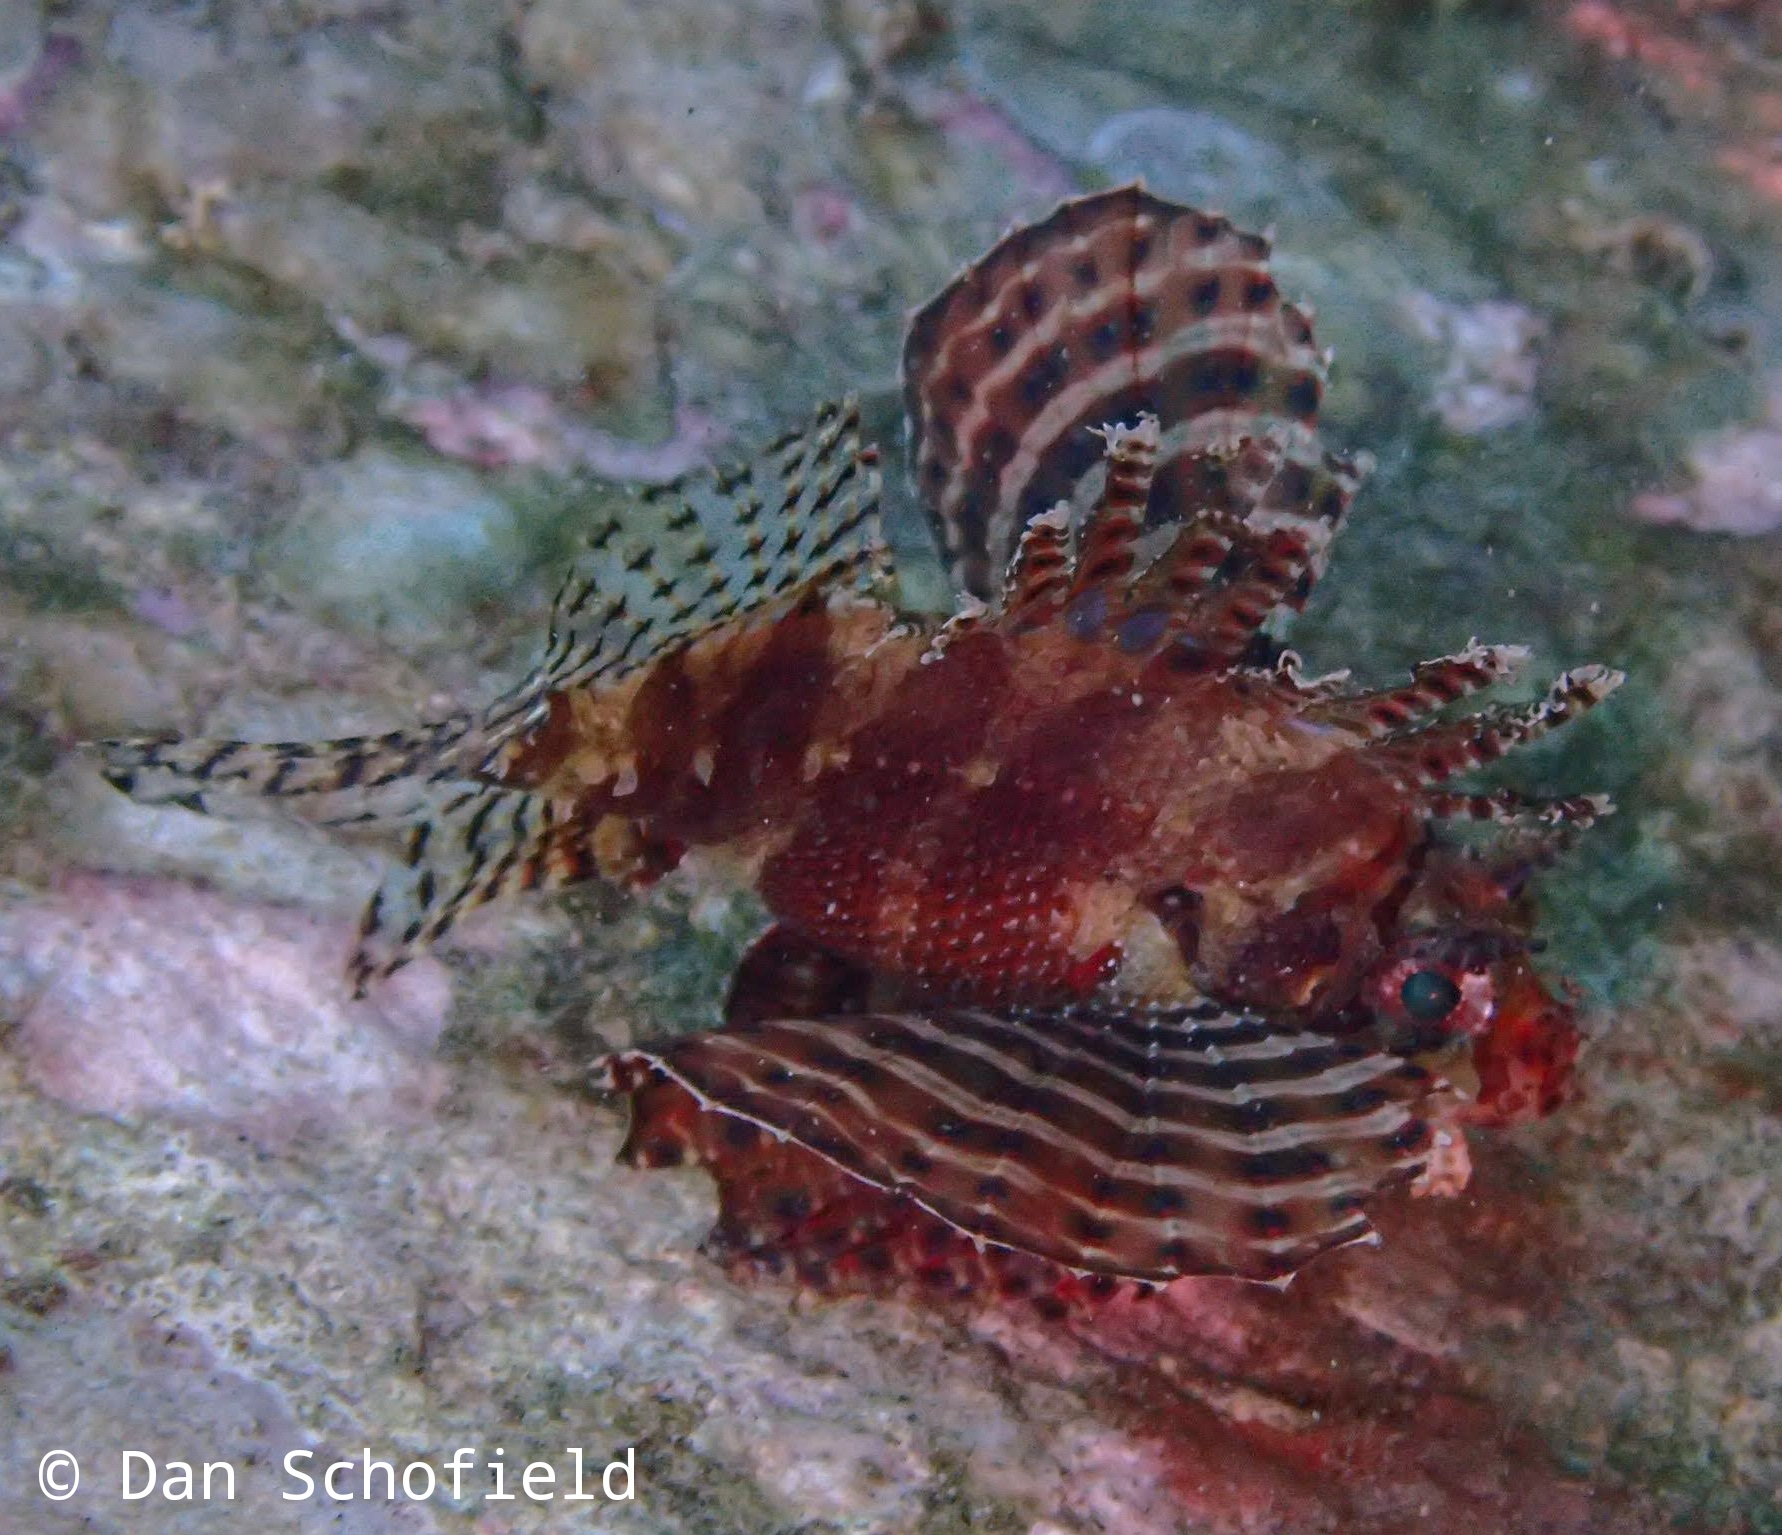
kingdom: Animalia
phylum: Chordata
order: Scorpaeniformes
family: Scorpaenidae
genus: Dendrochirus
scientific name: Dendrochirus brachypterus
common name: Shortfin turkeyfish
